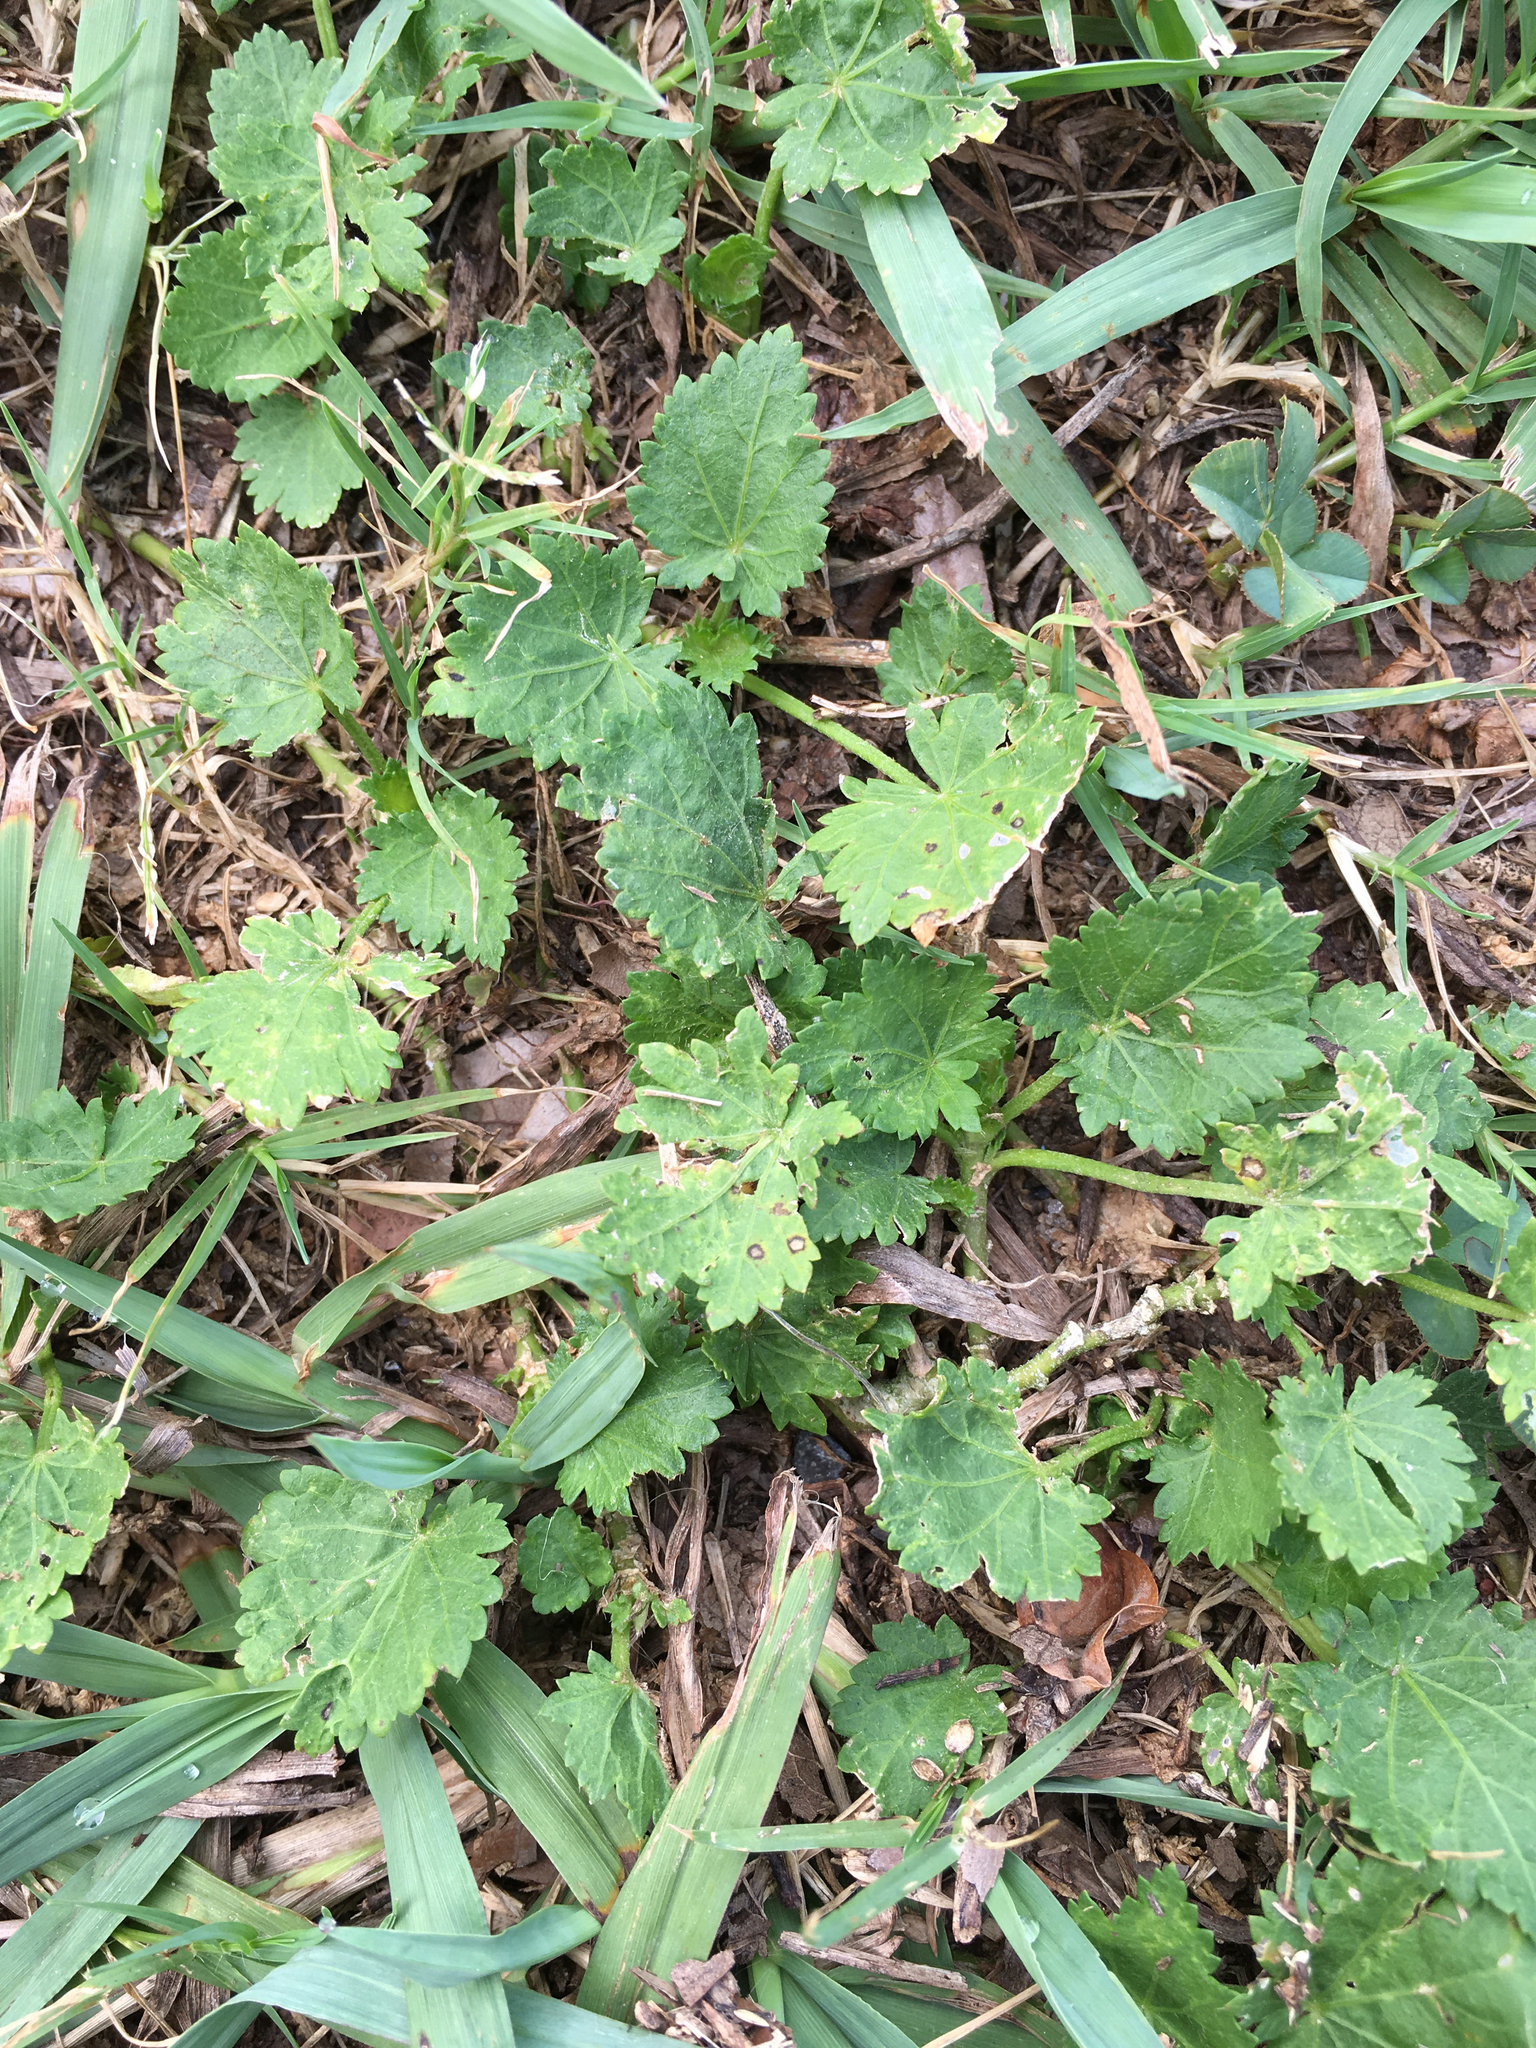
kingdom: Plantae
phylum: Tracheophyta
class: Magnoliopsida
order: Malvales
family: Malvaceae
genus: Modiola
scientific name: Modiola caroliniana
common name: Carolina bristlemallow
